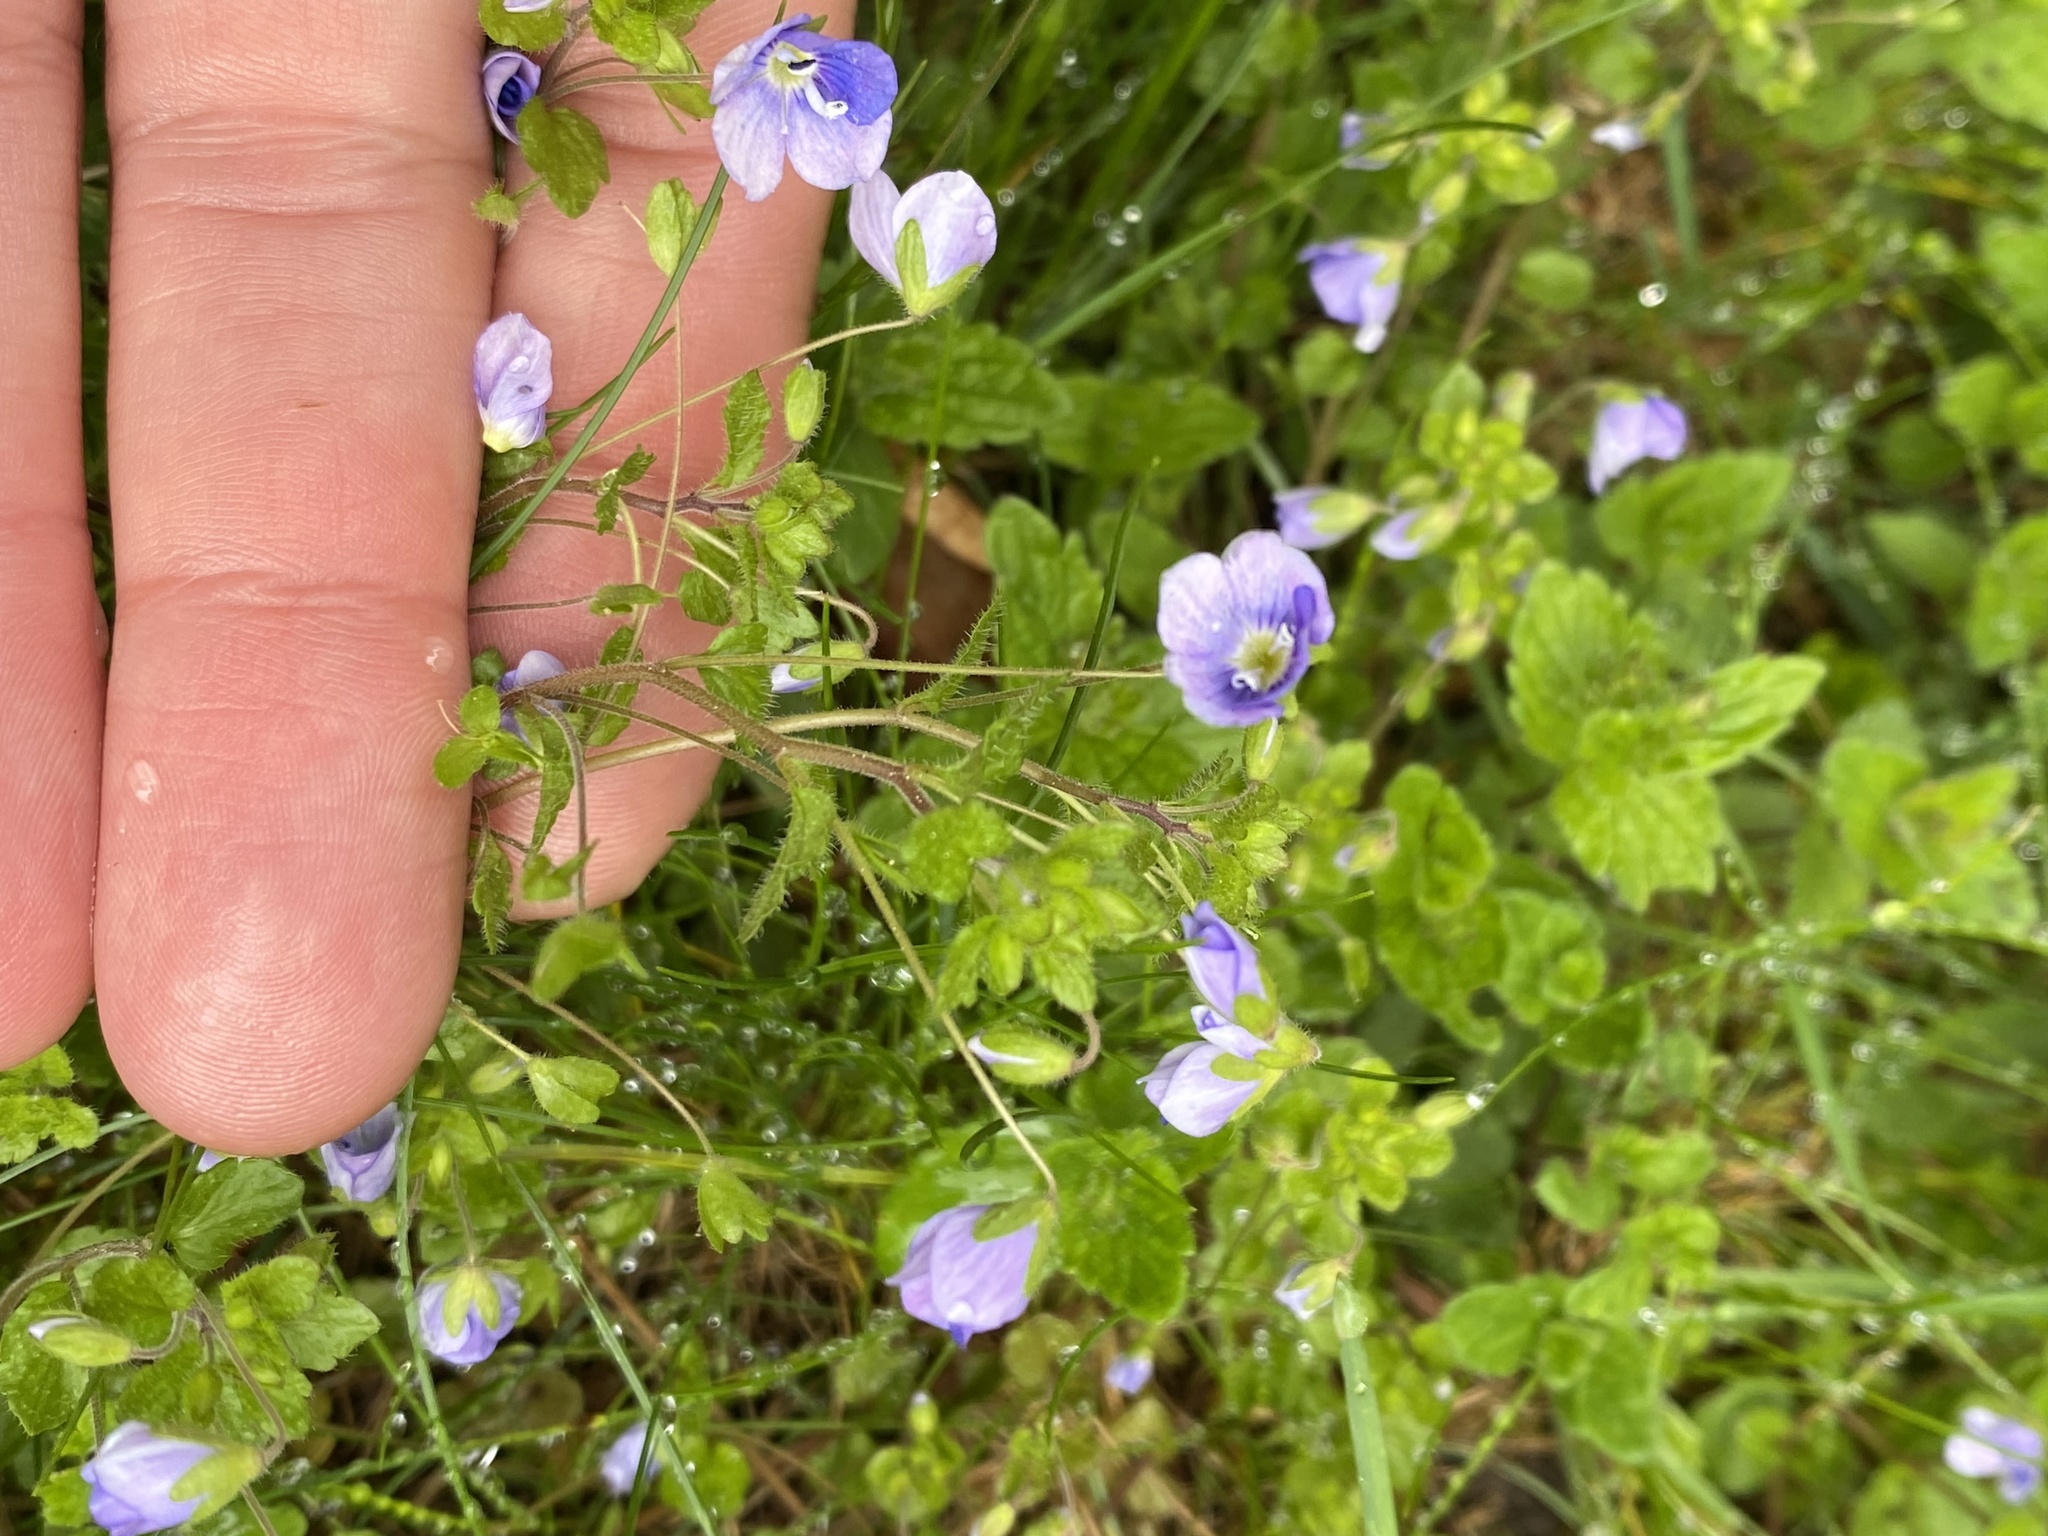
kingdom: Plantae
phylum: Tracheophyta
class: Magnoliopsida
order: Lamiales
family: Plantaginaceae
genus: Veronica
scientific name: Veronica filiformis
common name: Slender speedwell
